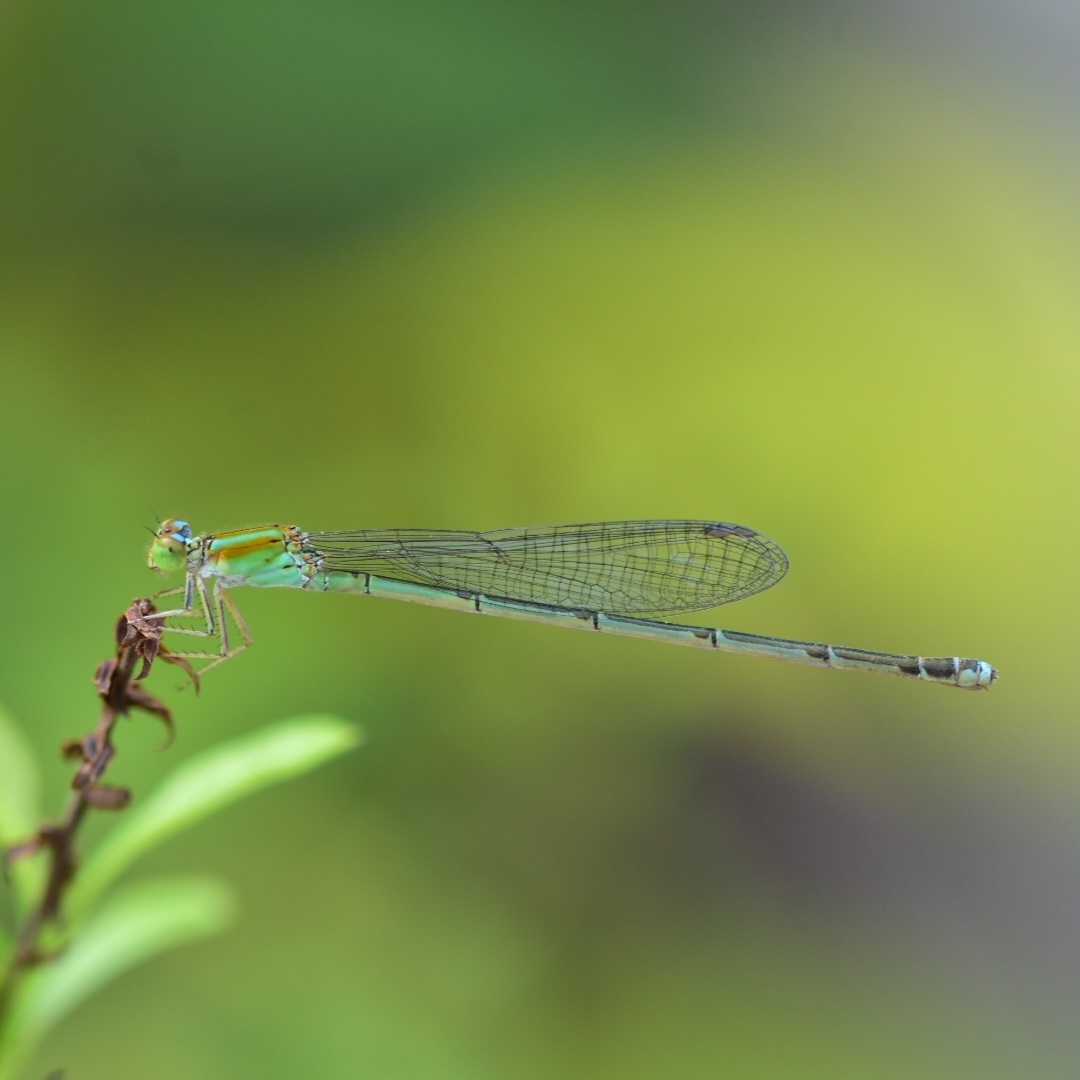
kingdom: Animalia
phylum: Arthropoda
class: Insecta
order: Odonata
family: Coenagrionidae
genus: Pseudagrion
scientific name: Pseudagrion microcephalum
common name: Blue riverdamsel
